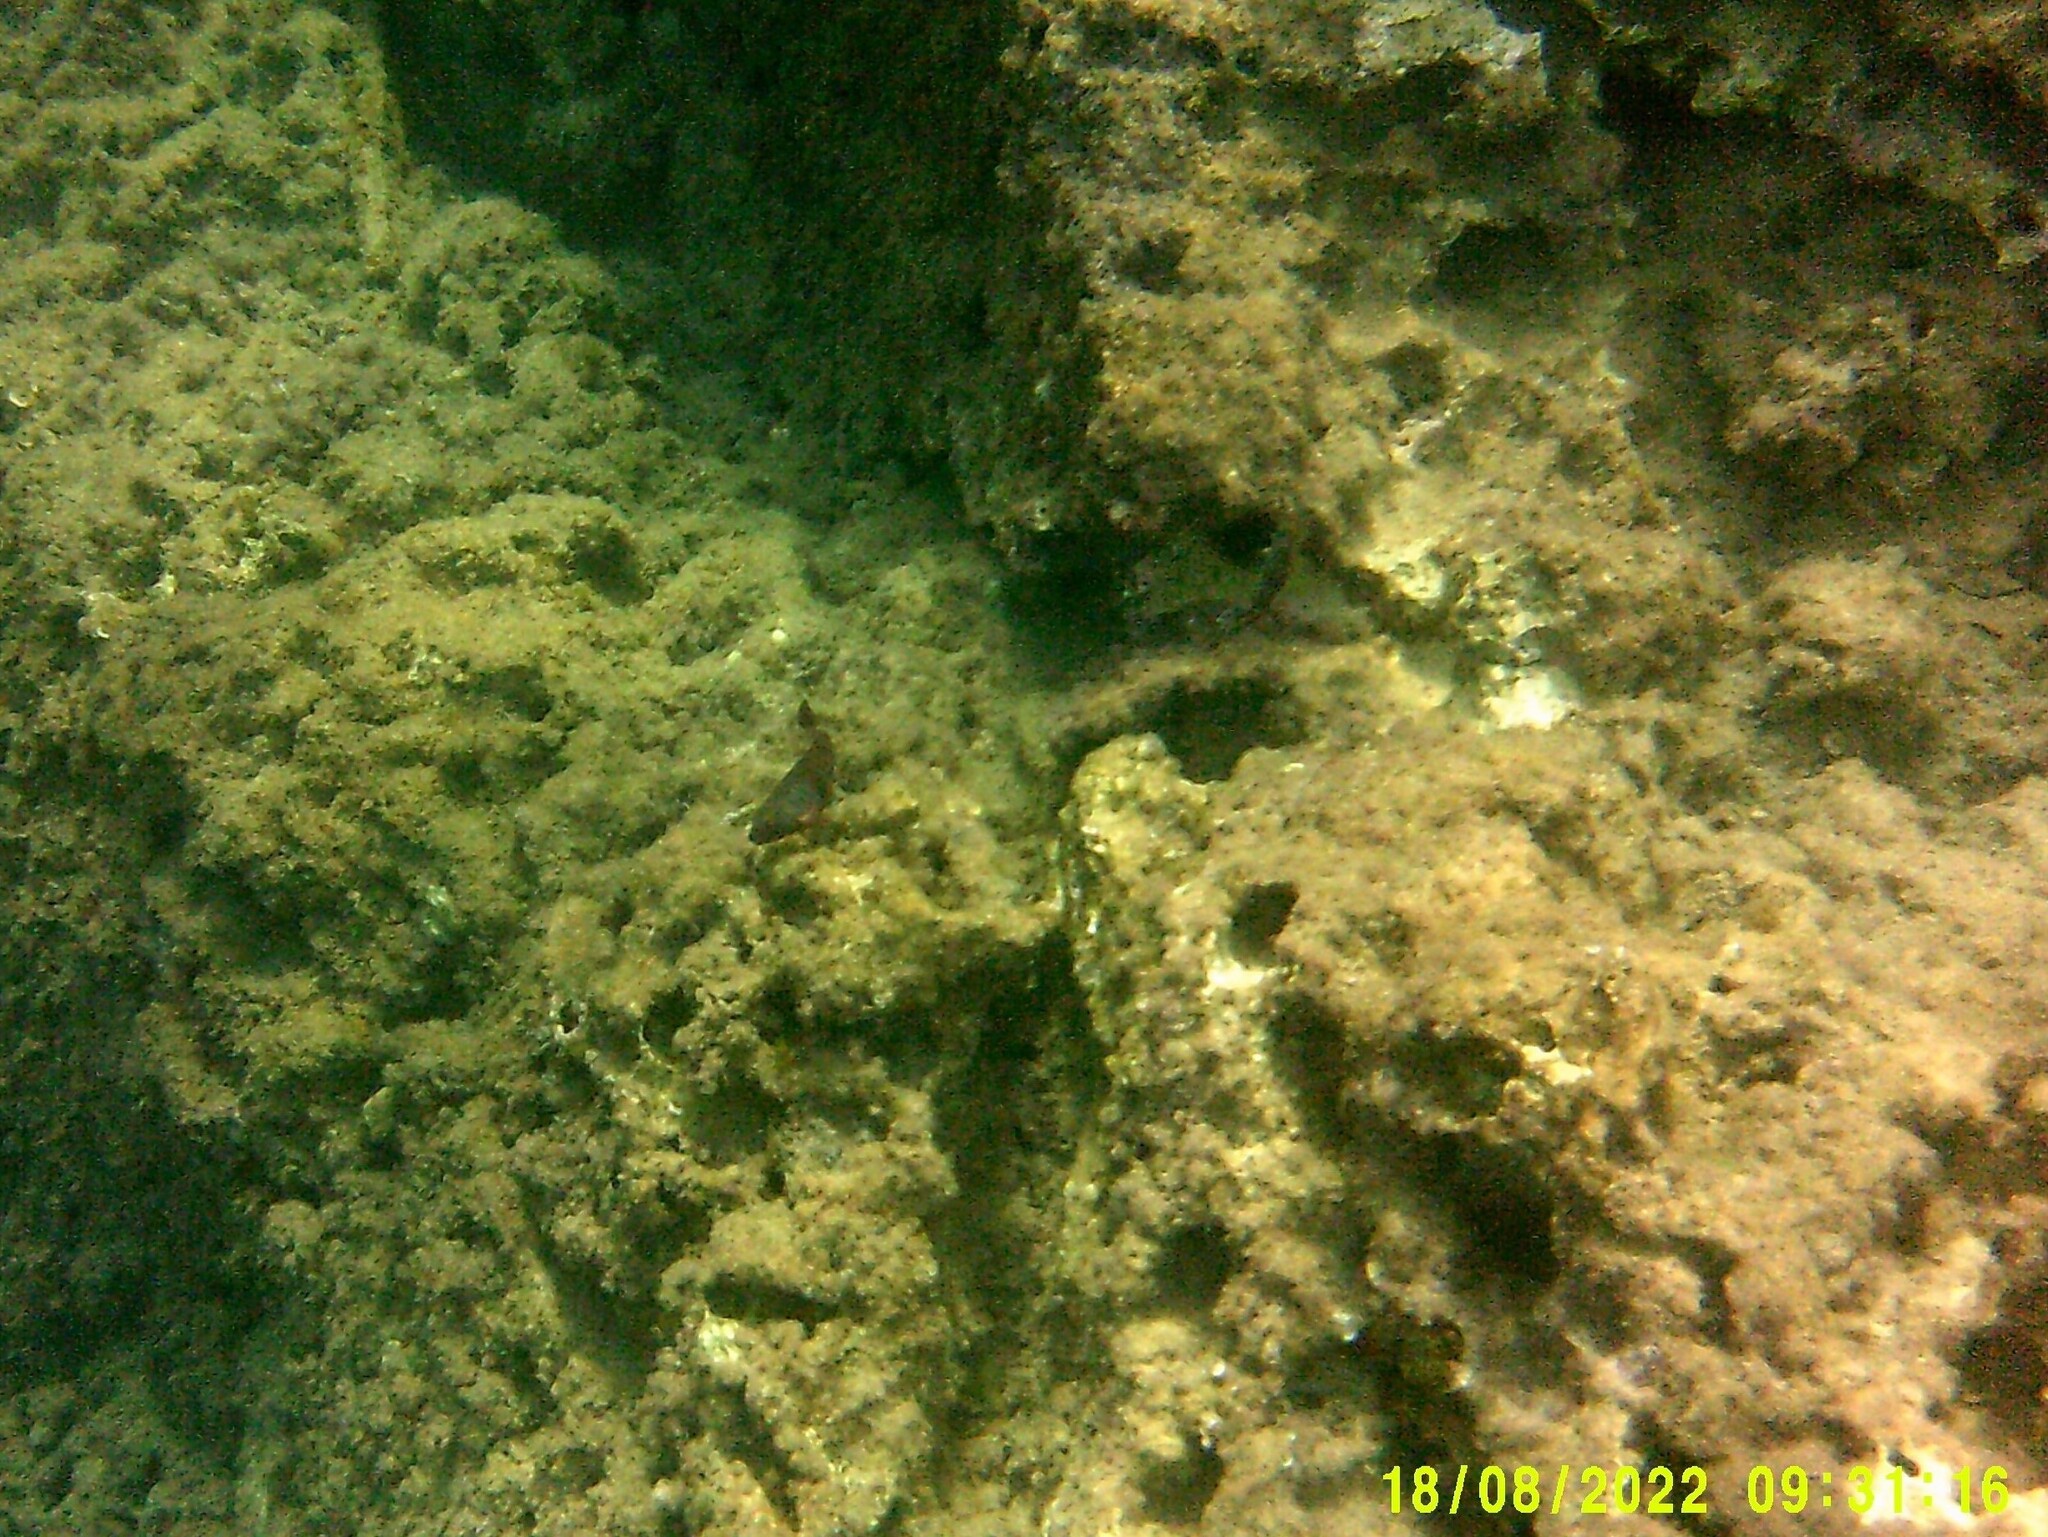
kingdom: Animalia
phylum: Chordata
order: Perciformes
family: Scaridae
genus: Sparisoma
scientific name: Sparisoma cretense
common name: Parrotfish
